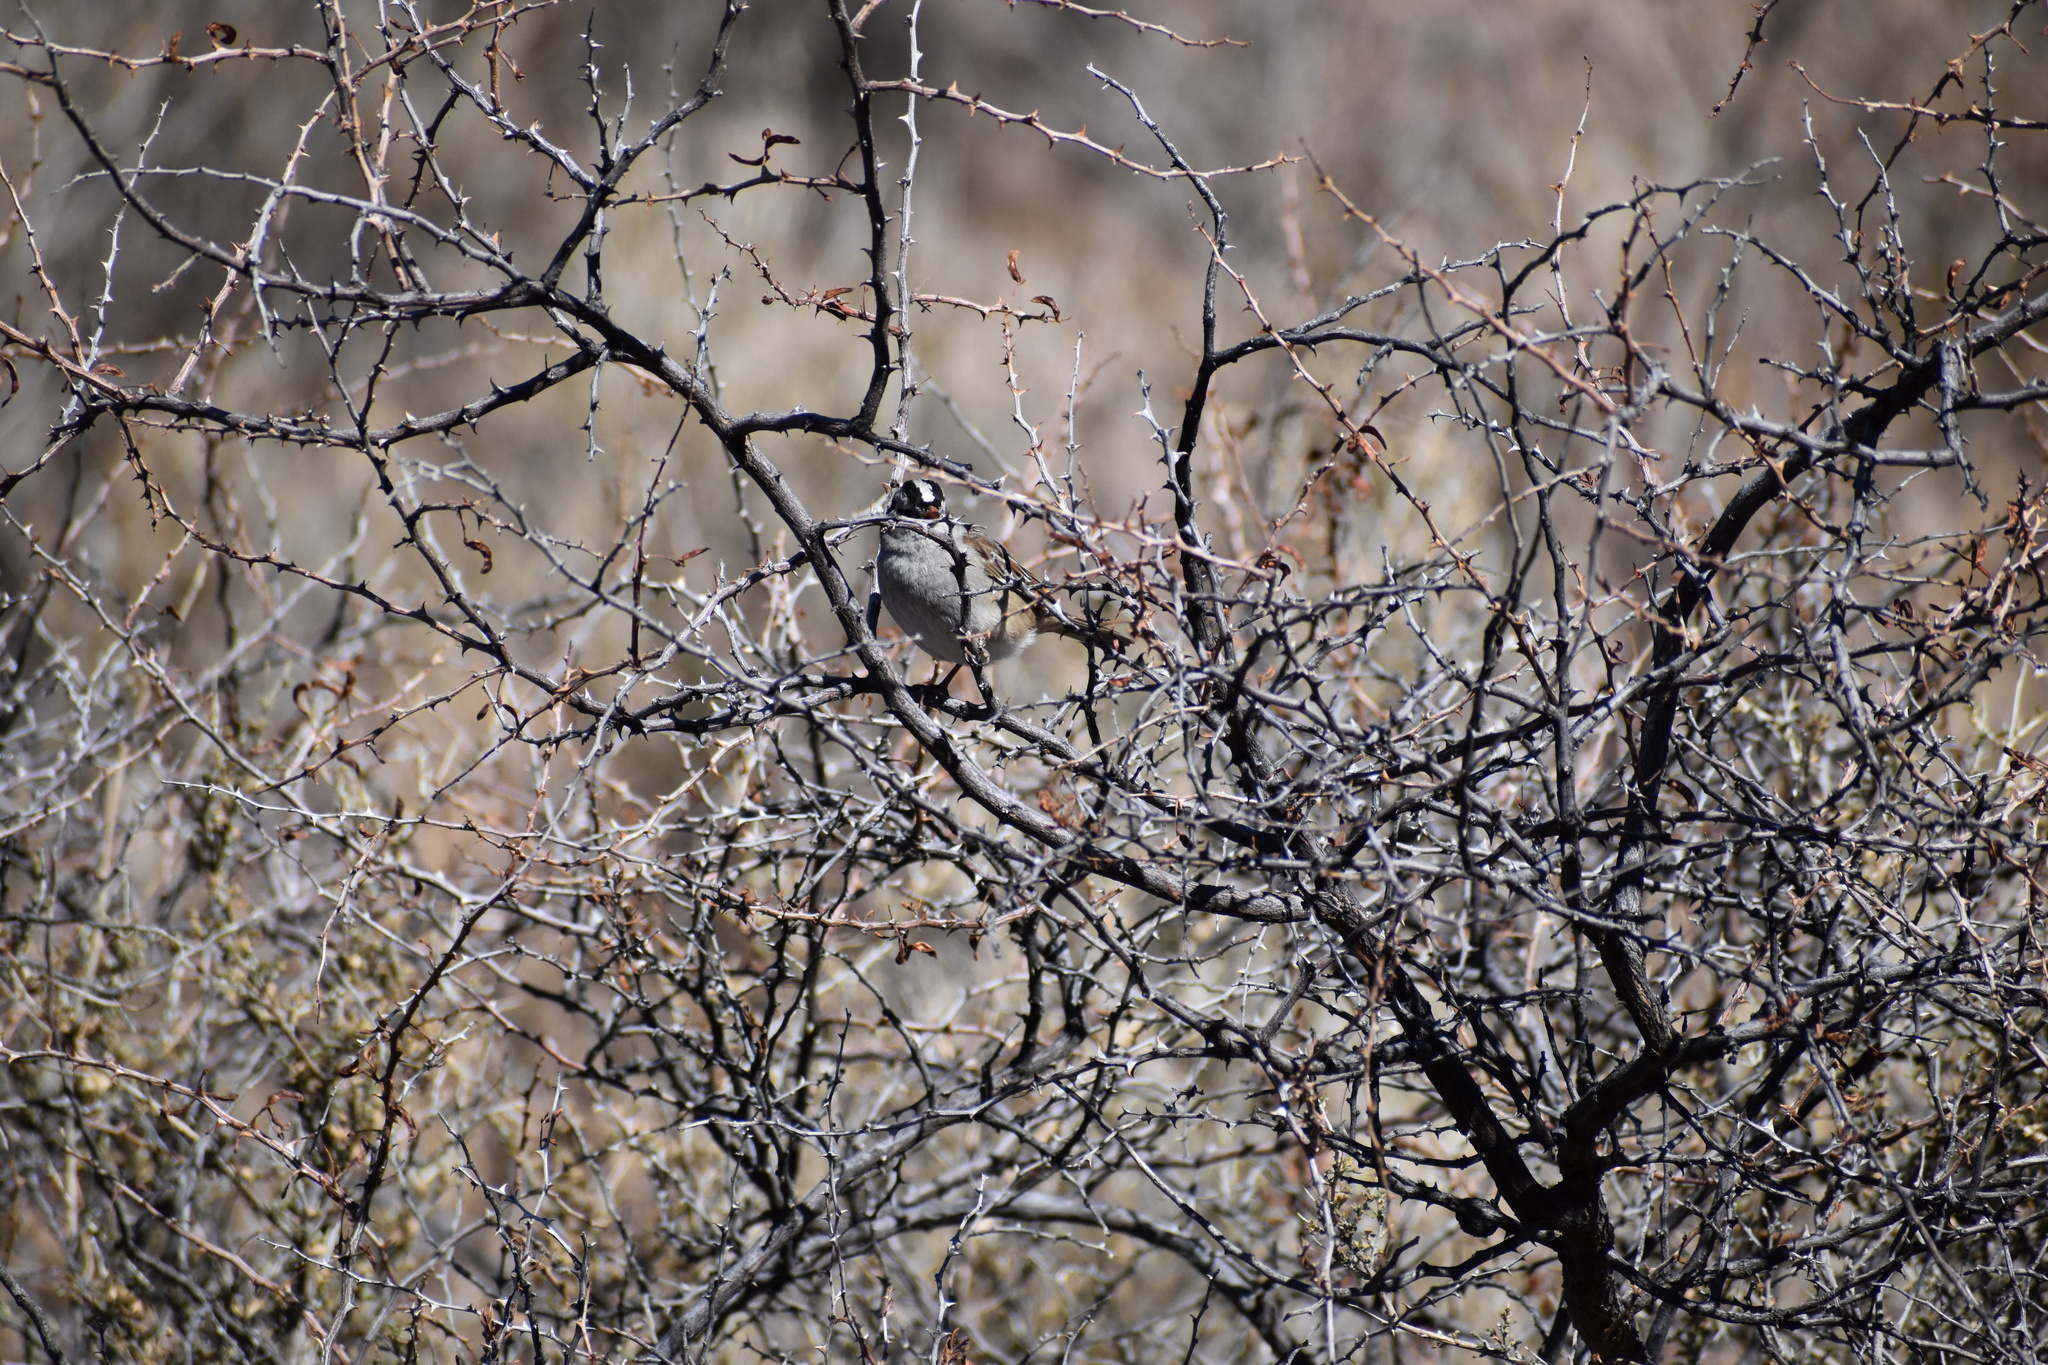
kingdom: Animalia
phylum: Chordata
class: Aves
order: Passeriformes
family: Passerellidae
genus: Zonotrichia
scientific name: Zonotrichia leucophrys
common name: White-crowned sparrow
